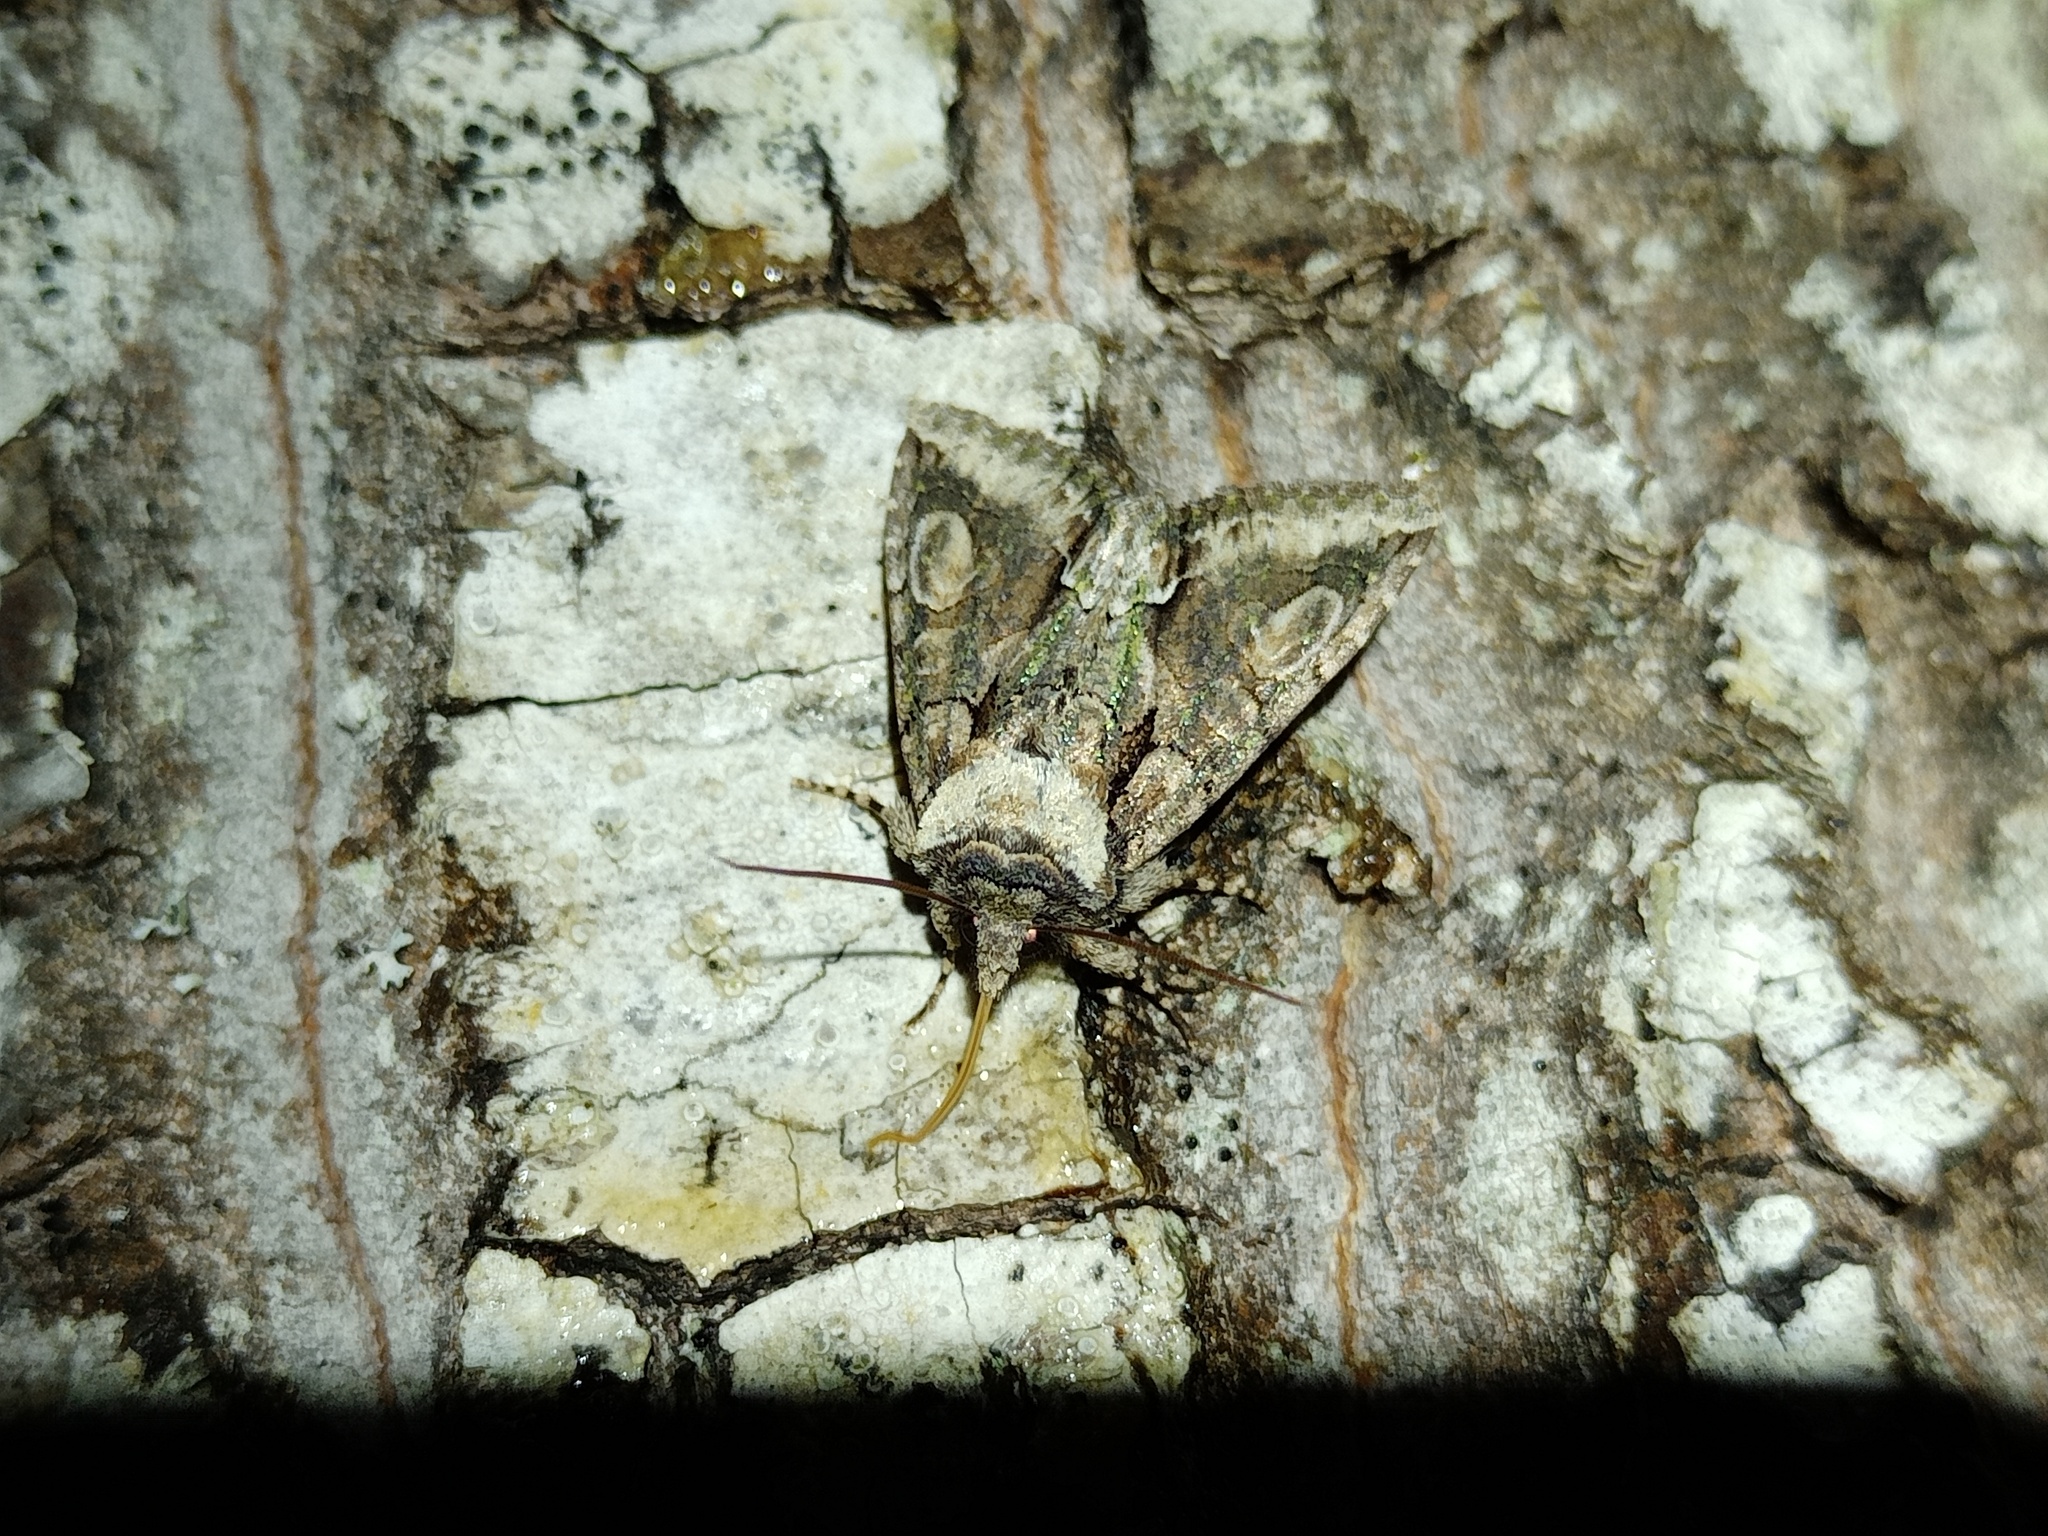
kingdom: Animalia
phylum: Arthropoda
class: Insecta
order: Lepidoptera
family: Noctuidae
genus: Allophyes
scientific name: Allophyes oxyacanthae
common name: Green-brindled crescent
